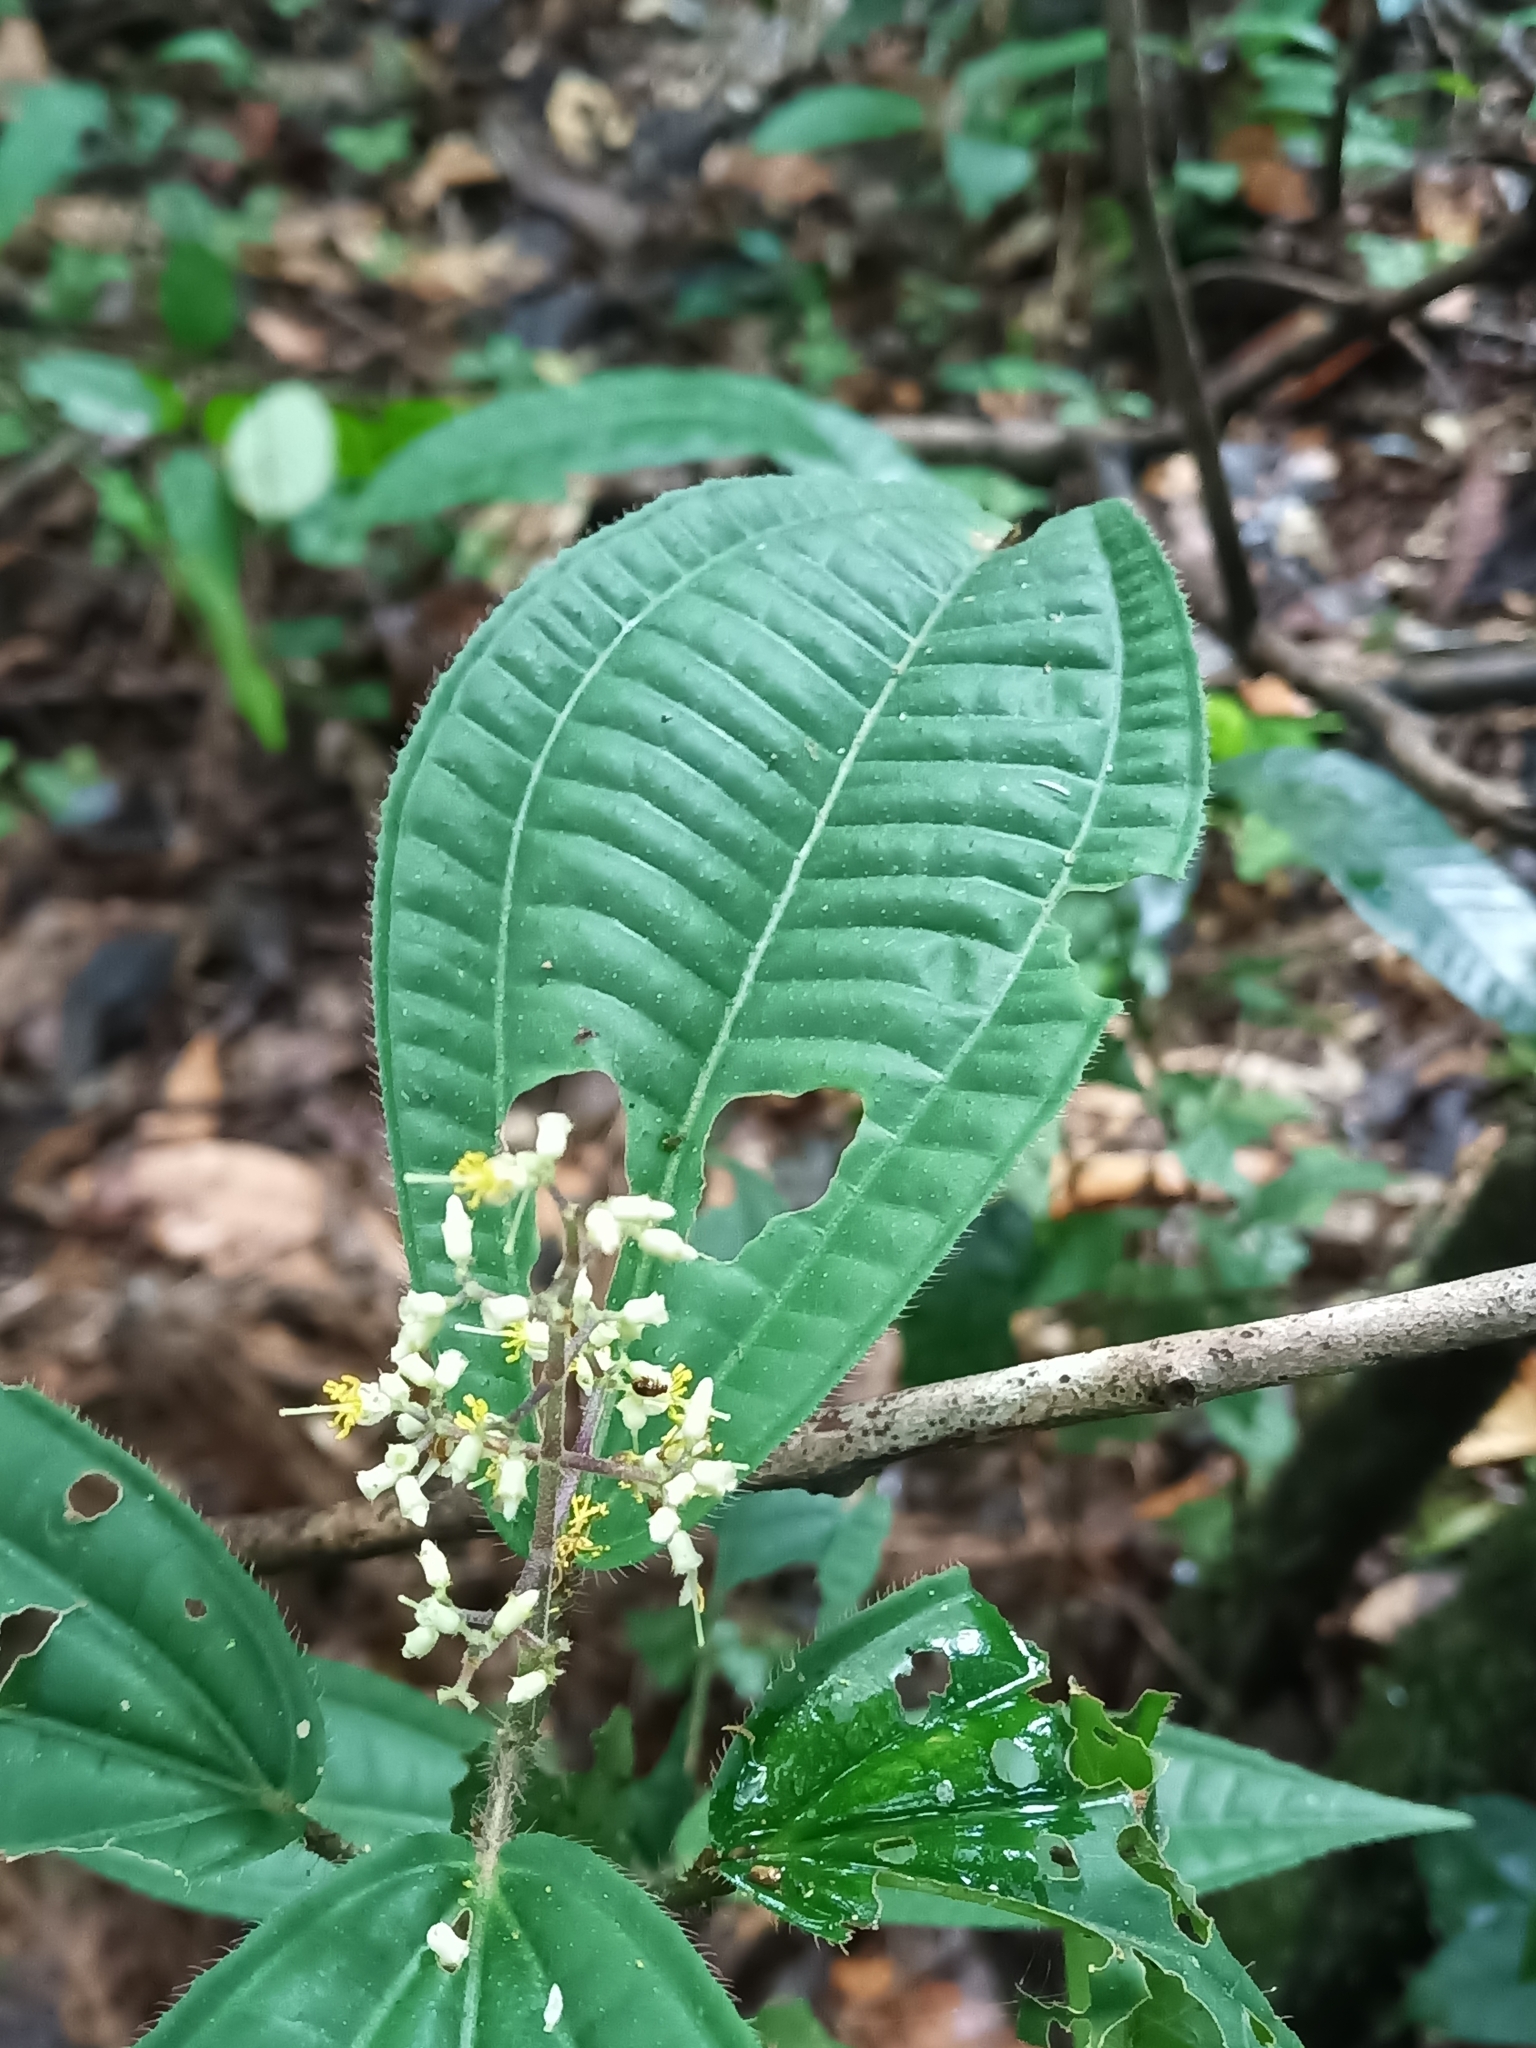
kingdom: Plantae
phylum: Tracheophyta
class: Magnoliopsida
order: Myrtales
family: Melastomataceae
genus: Miconia
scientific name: Miconia sastrei
